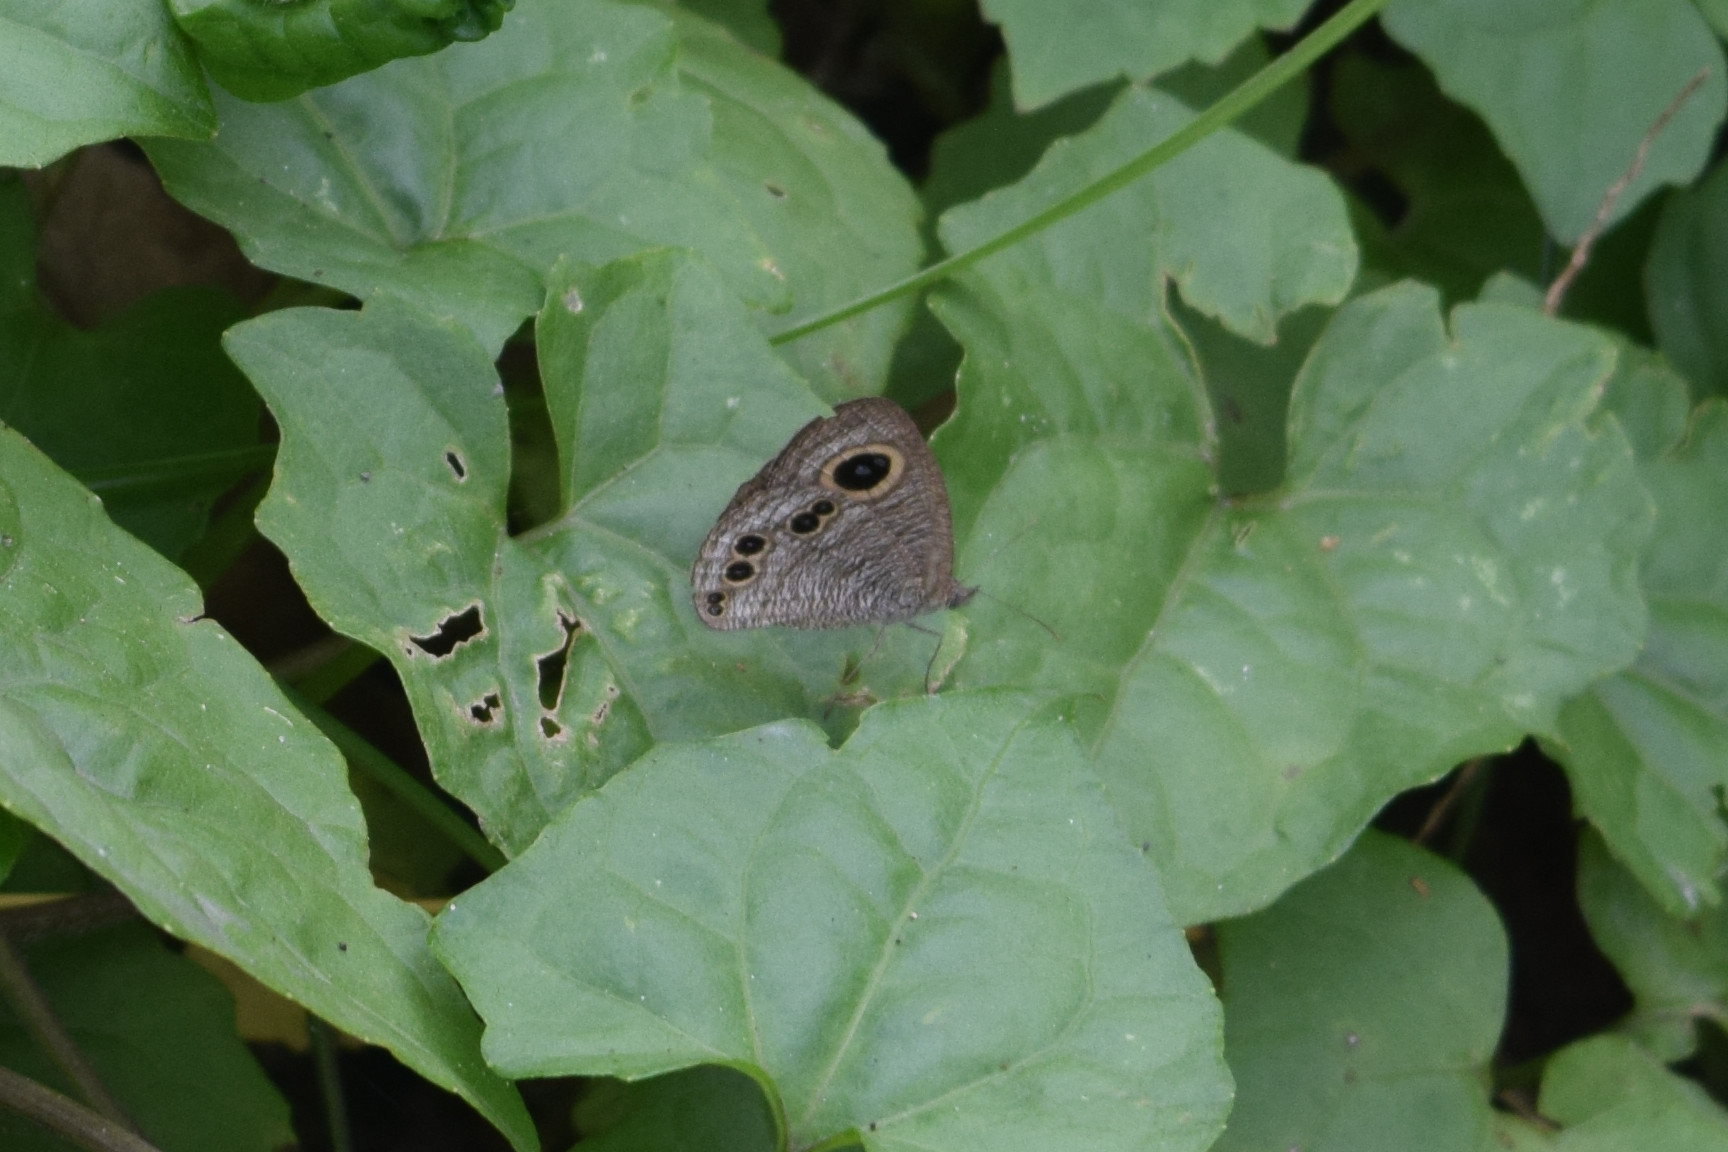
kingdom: Animalia
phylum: Arthropoda
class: Insecta
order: Lepidoptera
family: Nymphalidae
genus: Ypthima
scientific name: Ypthima baldus
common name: Common five-ring
